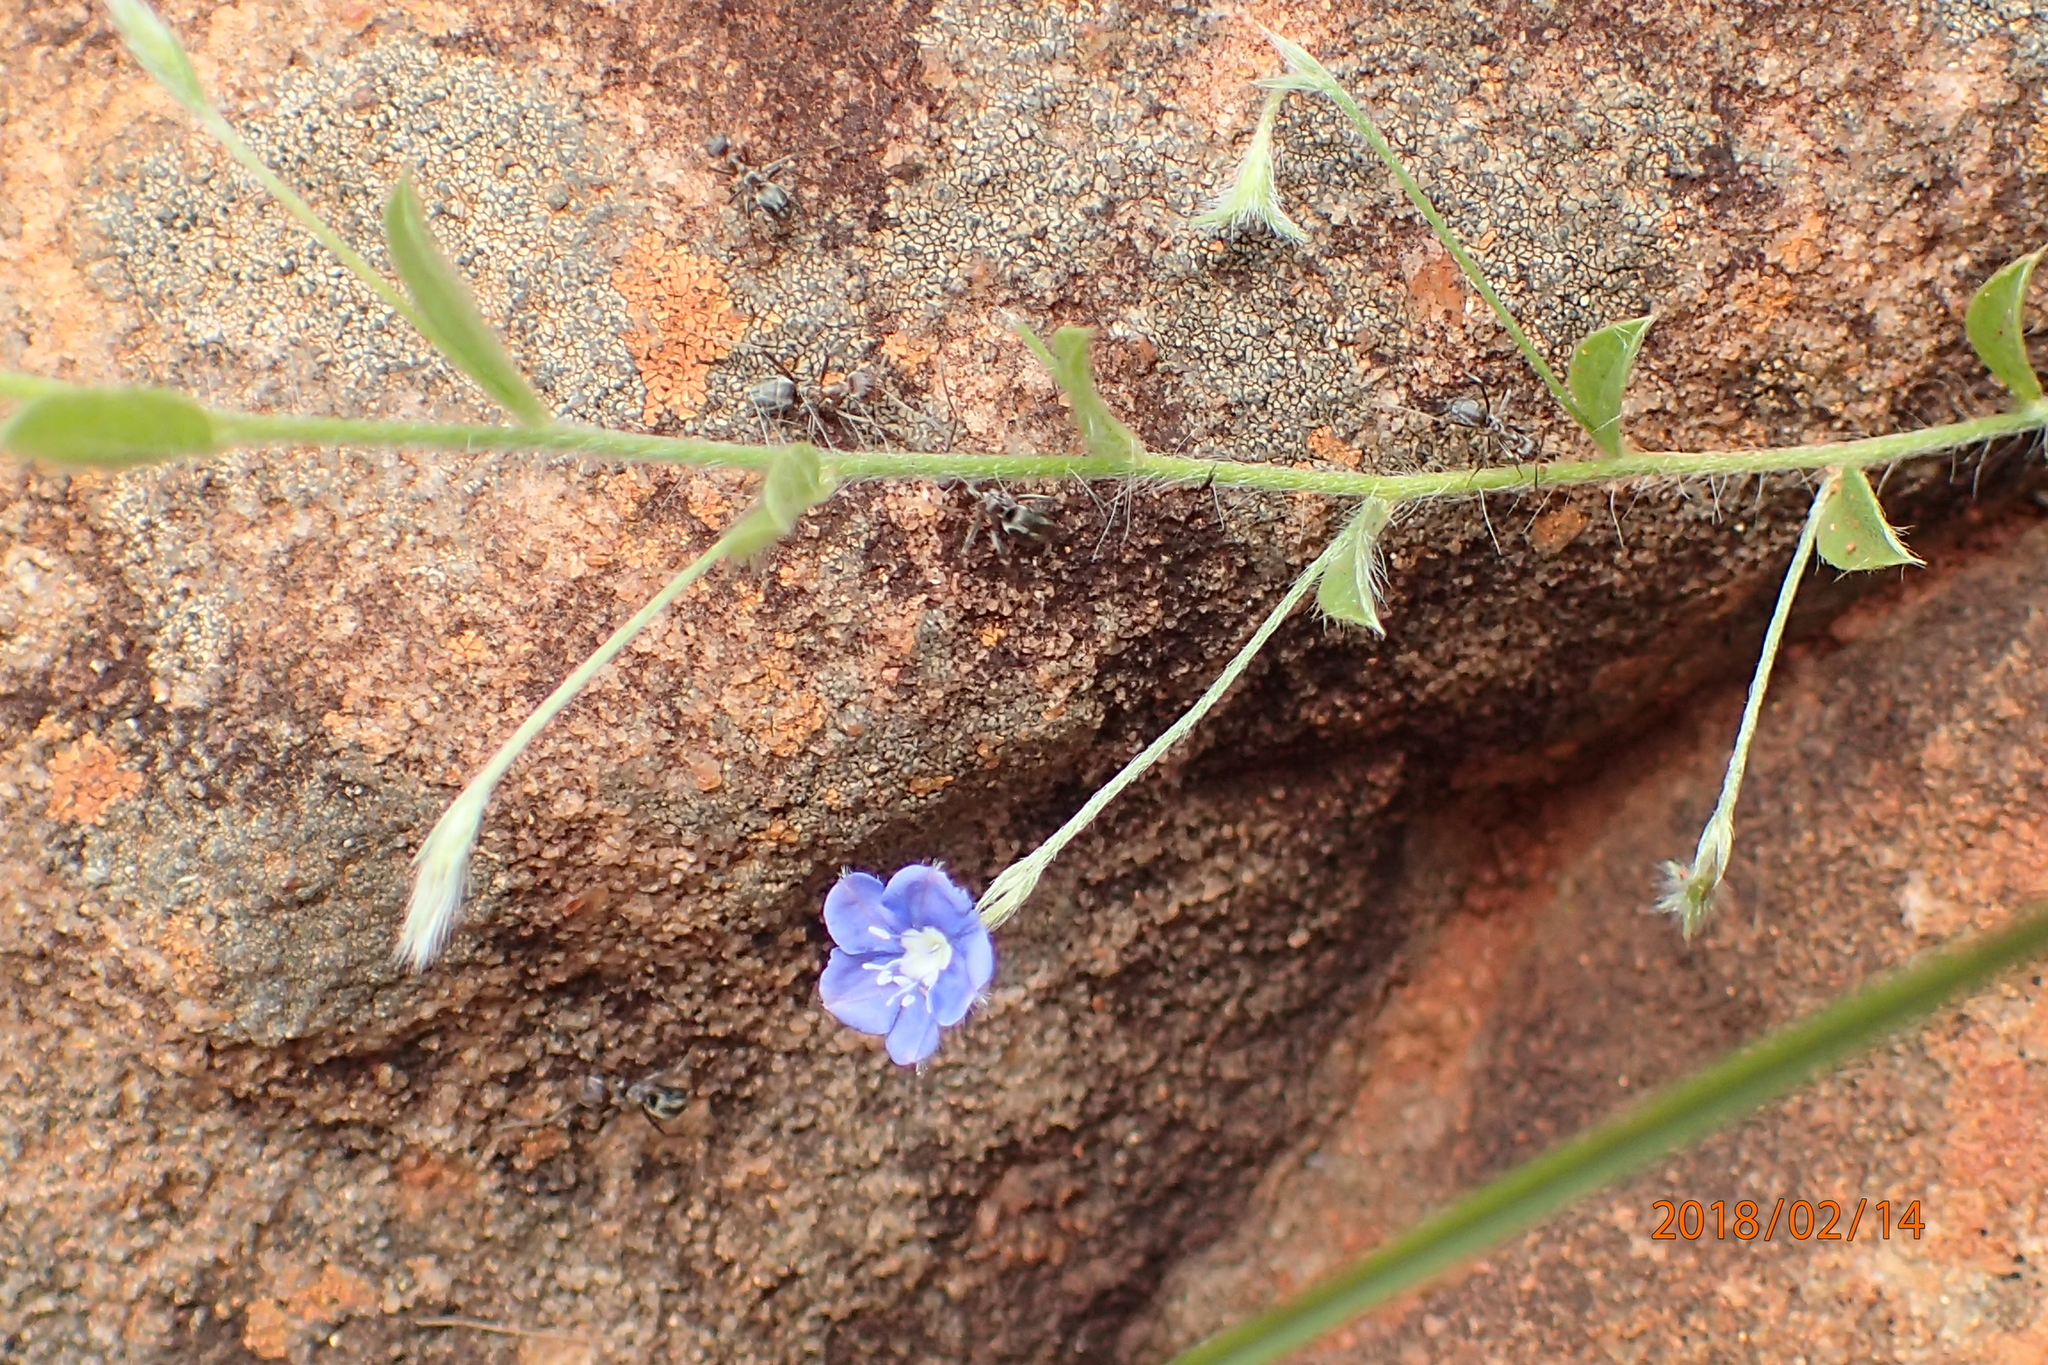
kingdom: Plantae
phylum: Tracheophyta
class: Magnoliopsida
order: Solanales
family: Convolvulaceae
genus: Evolvulus
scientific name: Evolvulus alsinoides
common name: Slender dwarf morning-glory
